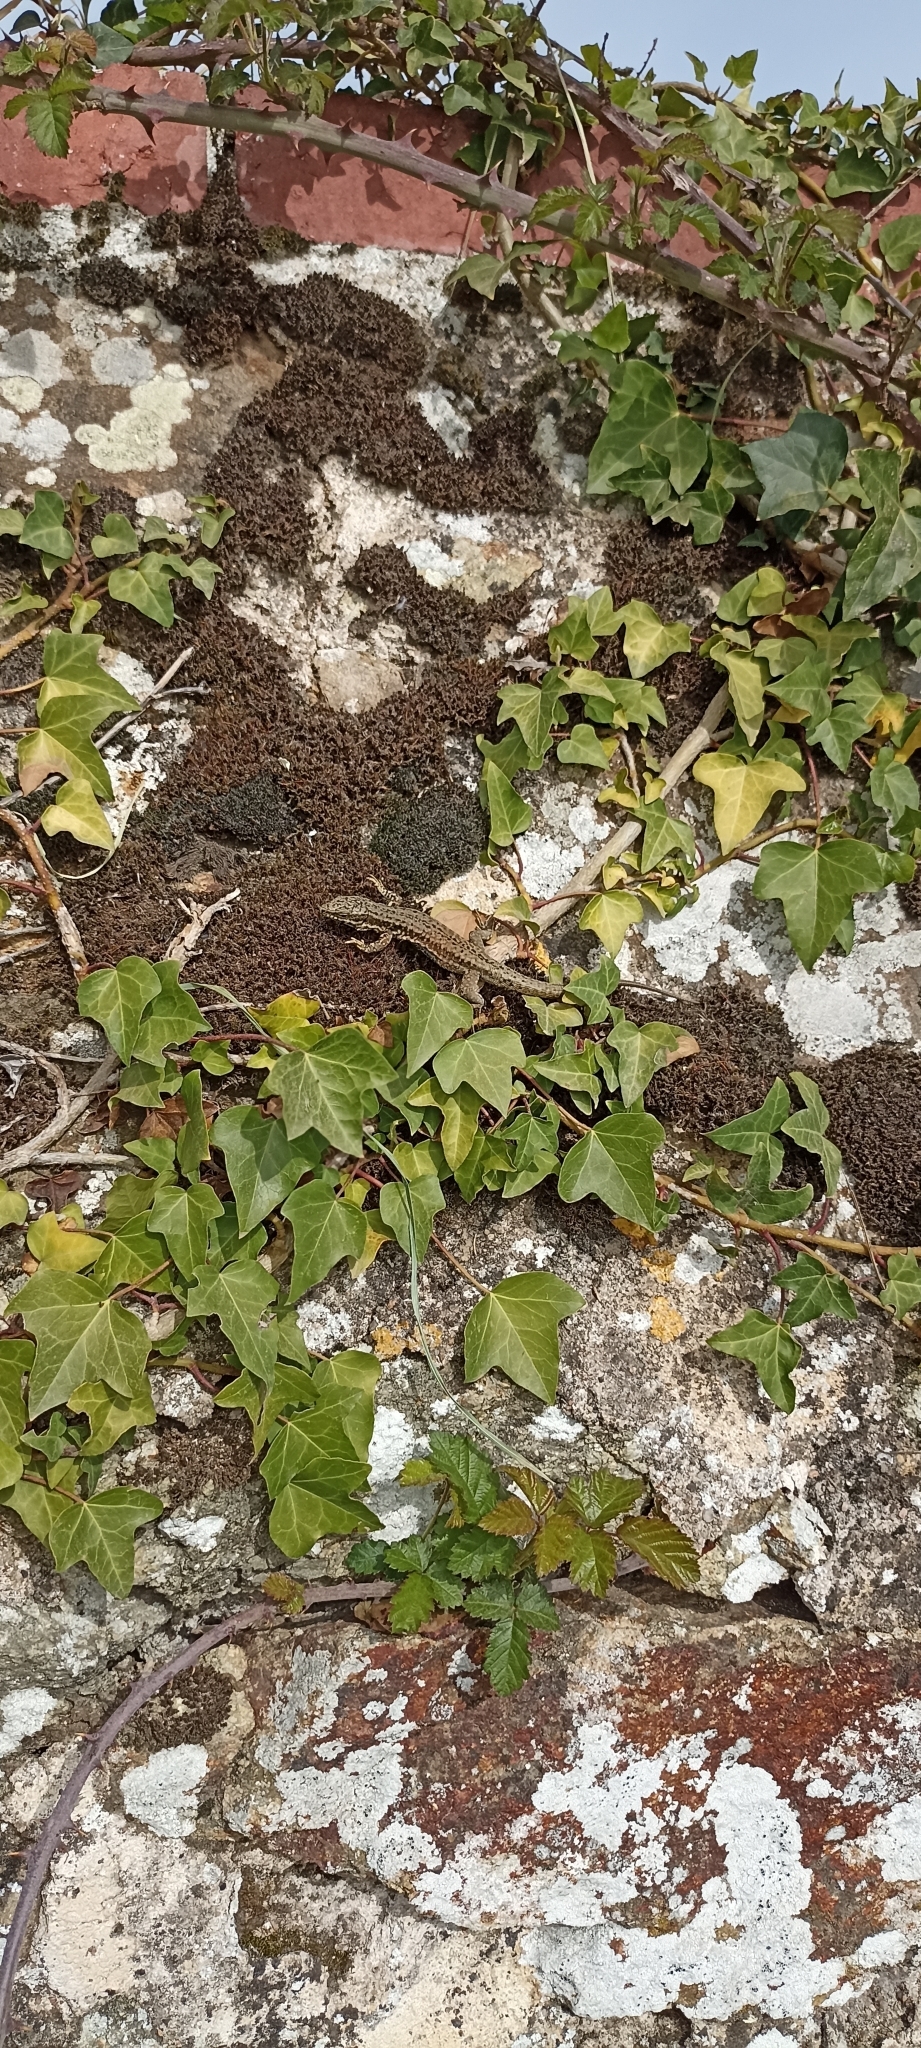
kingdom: Animalia
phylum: Chordata
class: Squamata
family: Lacertidae
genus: Podarcis
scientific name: Podarcis muralis
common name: Common wall lizard
